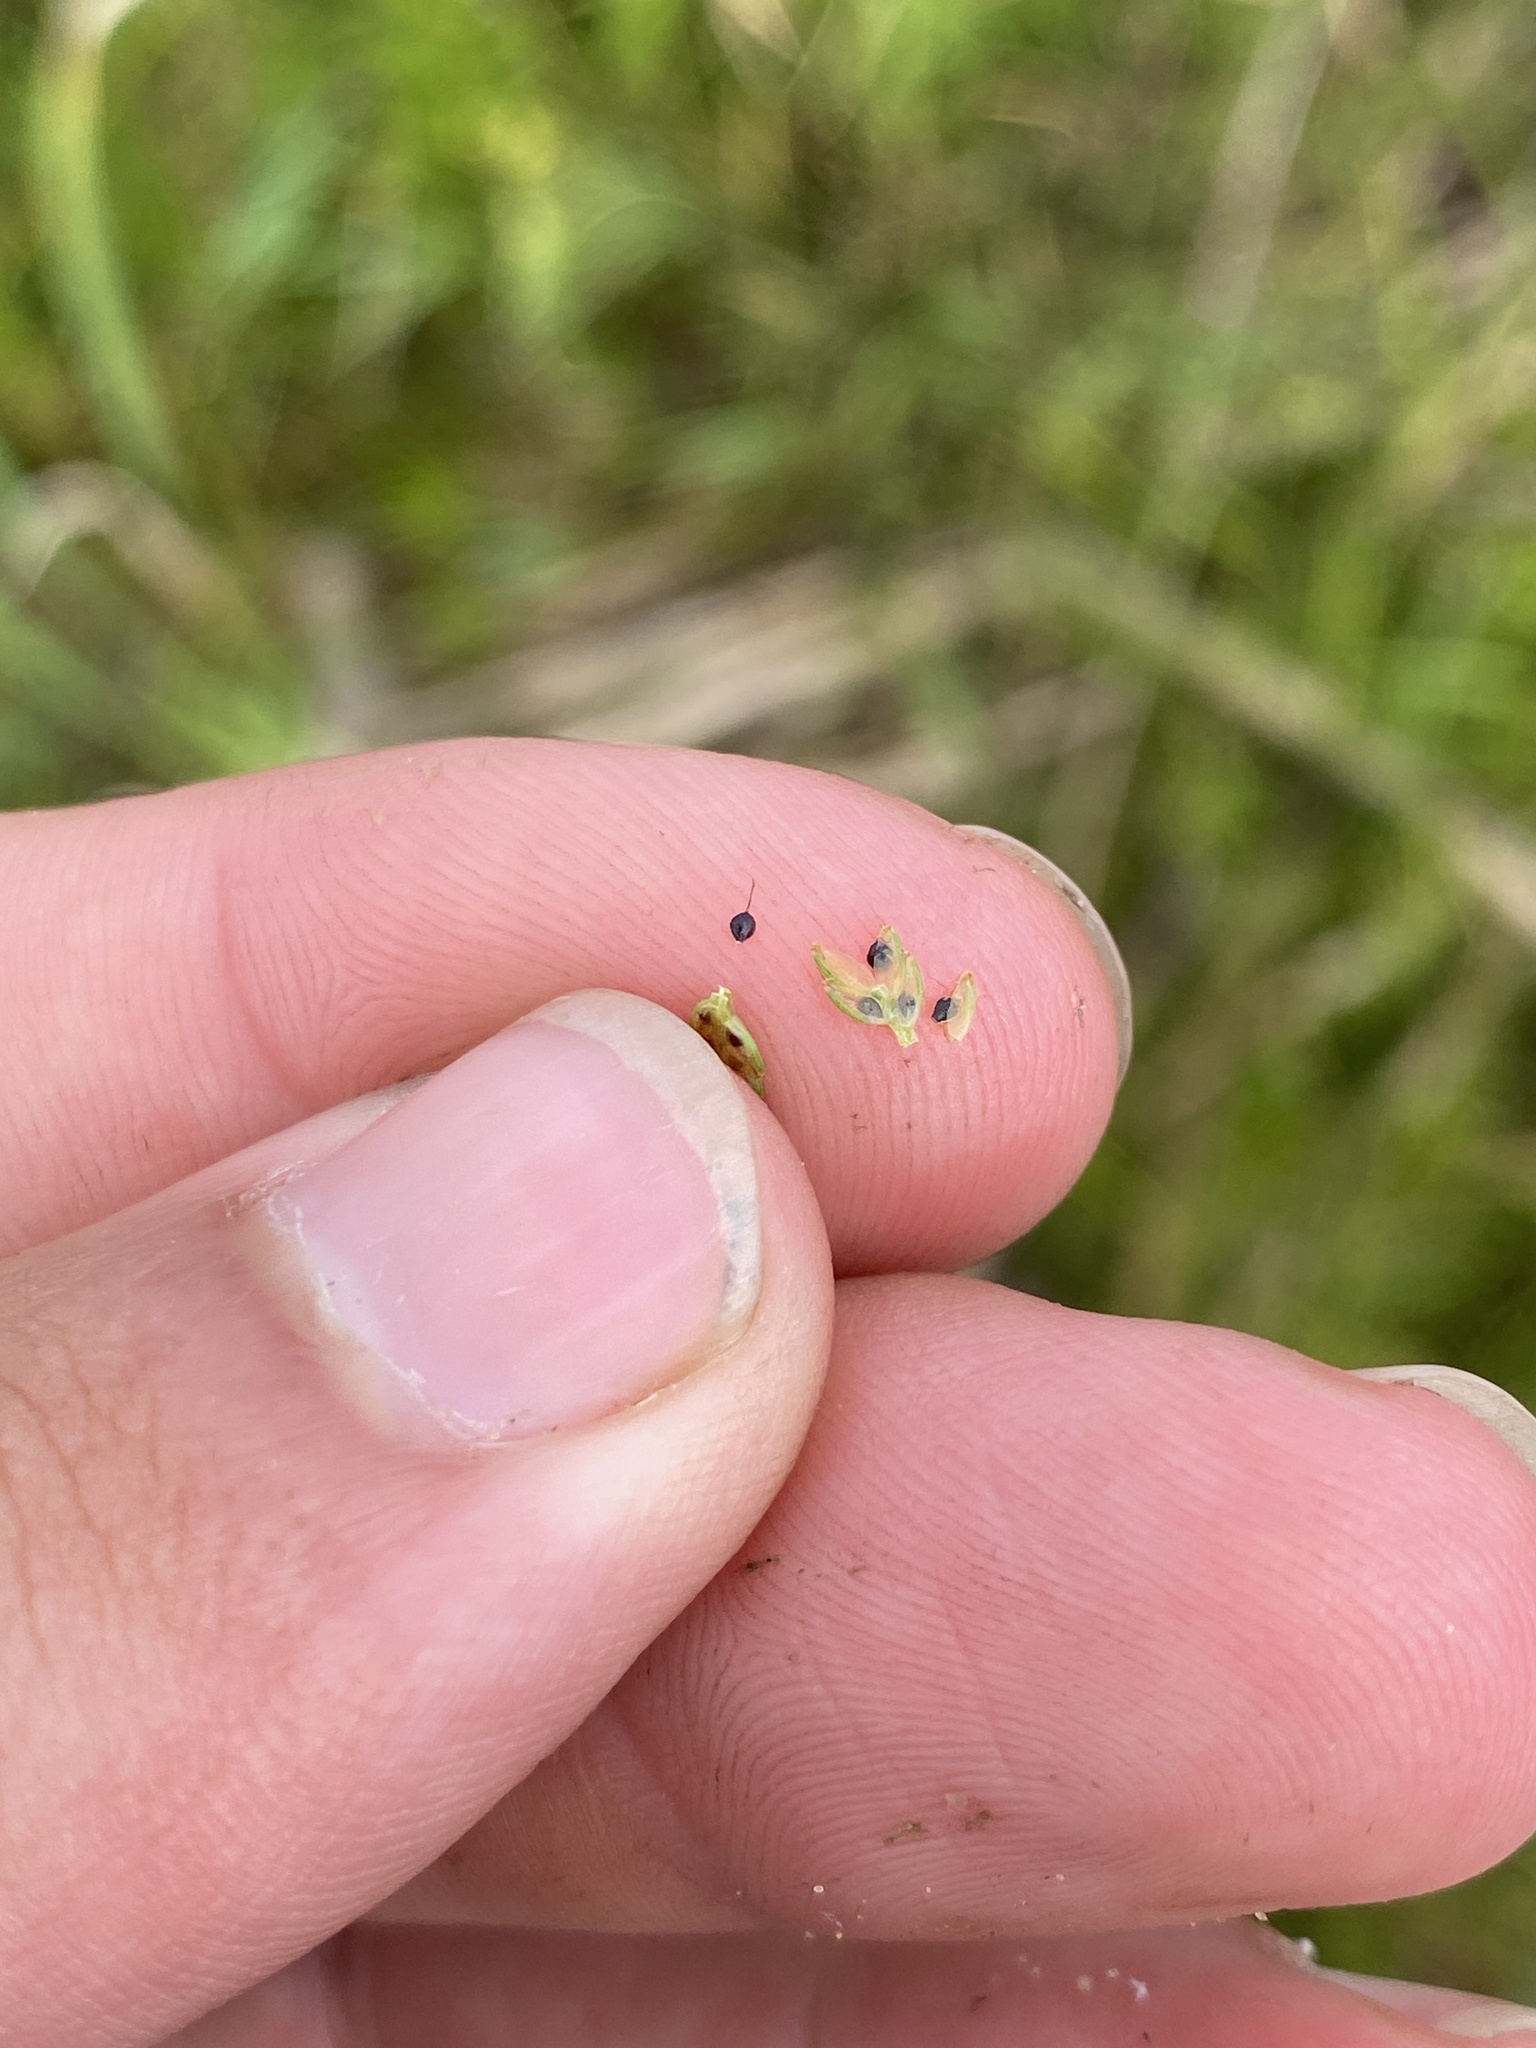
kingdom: Plantae
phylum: Tracheophyta
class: Liliopsida
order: Poales
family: Cyperaceae
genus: Cyperus
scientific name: Cyperus flavescens
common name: Yellow galingale
